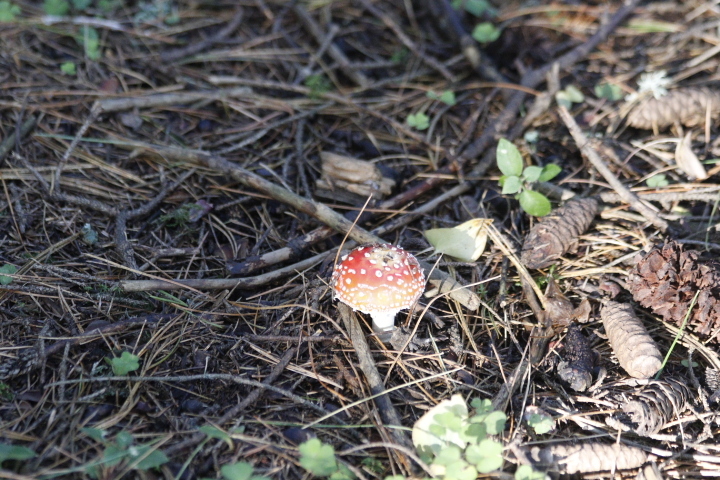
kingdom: Fungi
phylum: Basidiomycota
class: Agaricomycetes
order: Agaricales
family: Amanitaceae
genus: Amanita
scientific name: Amanita muscaria
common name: Fly agaric
